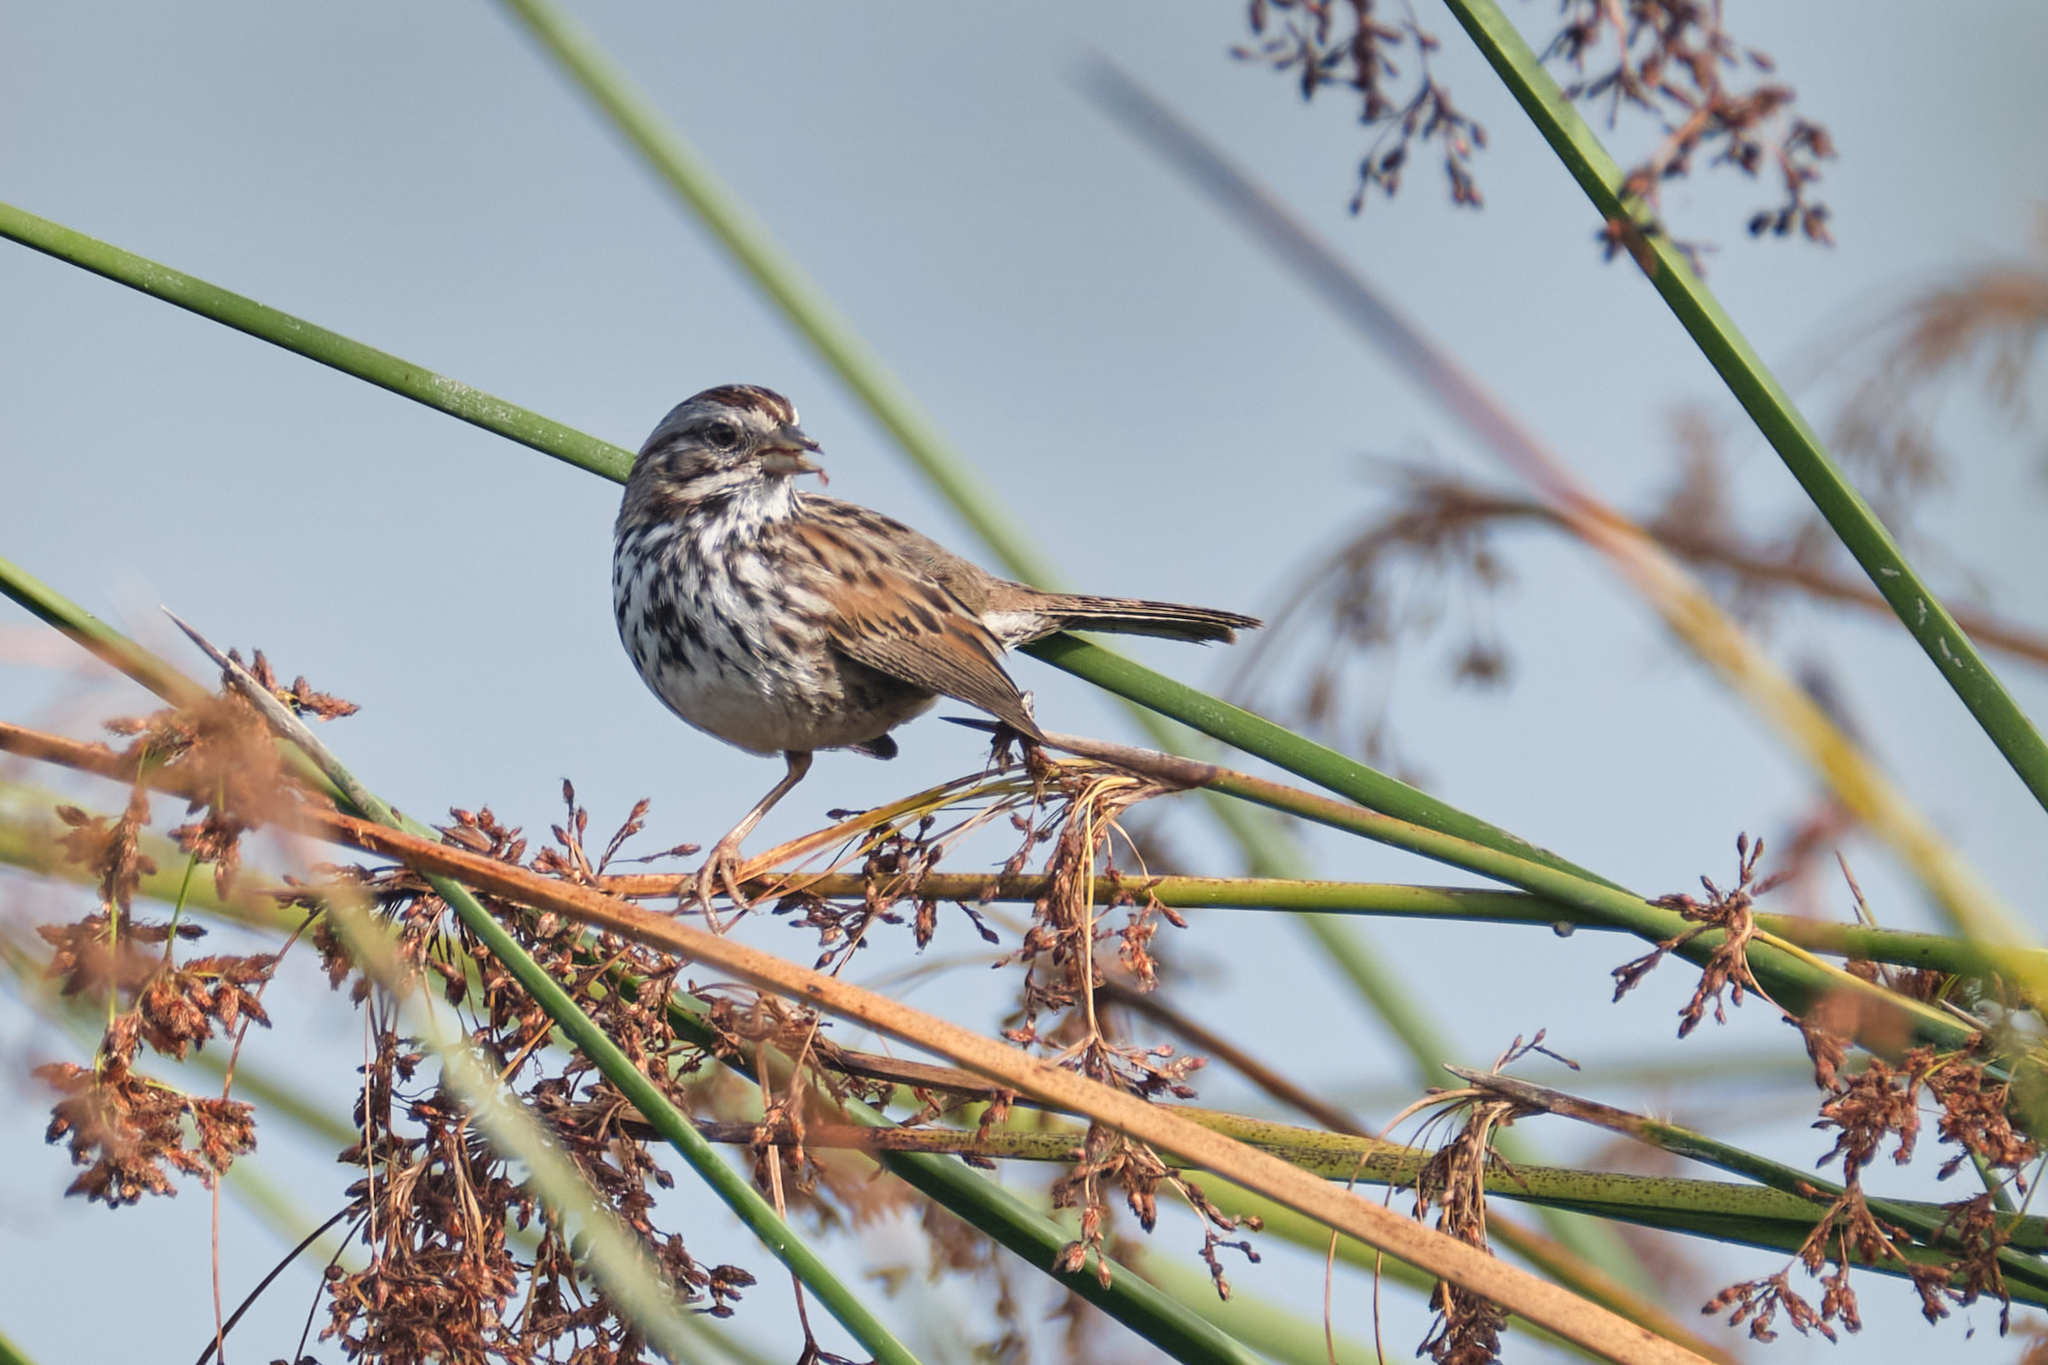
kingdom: Animalia
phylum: Chordata
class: Aves
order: Passeriformes
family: Passerellidae
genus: Melospiza
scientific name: Melospiza melodia
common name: Song sparrow
